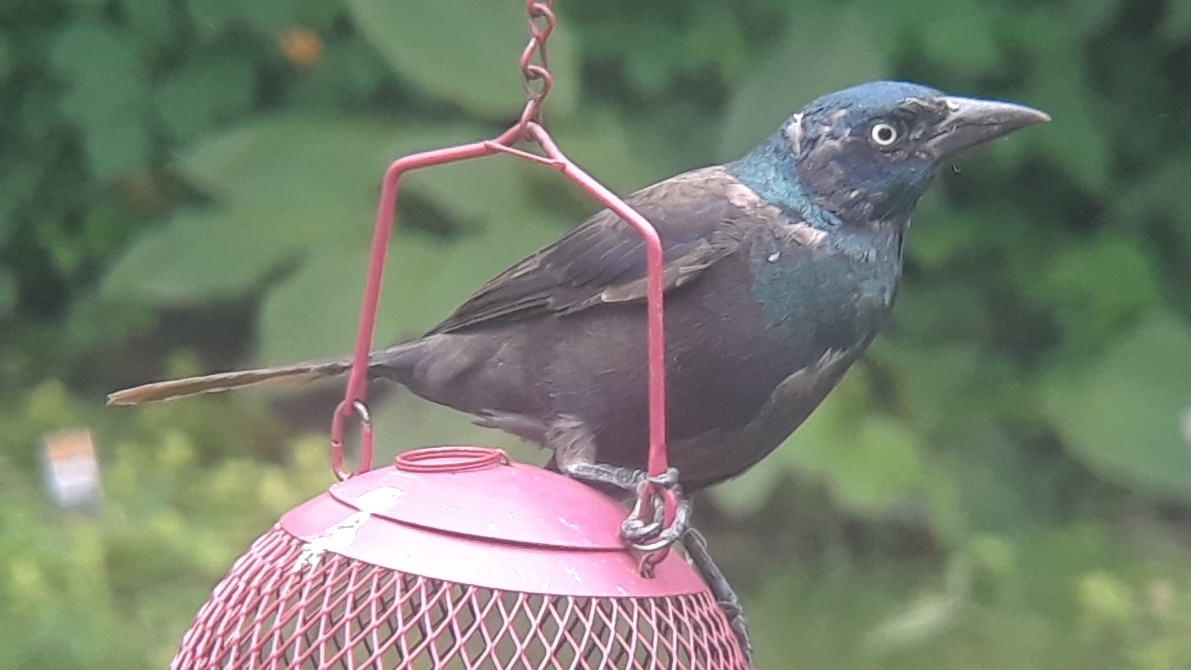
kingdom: Animalia
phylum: Chordata
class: Aves
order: Passeriformes
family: Icteridae
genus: Quiscalus
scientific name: Quiscalus quiscula
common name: Common grackle
